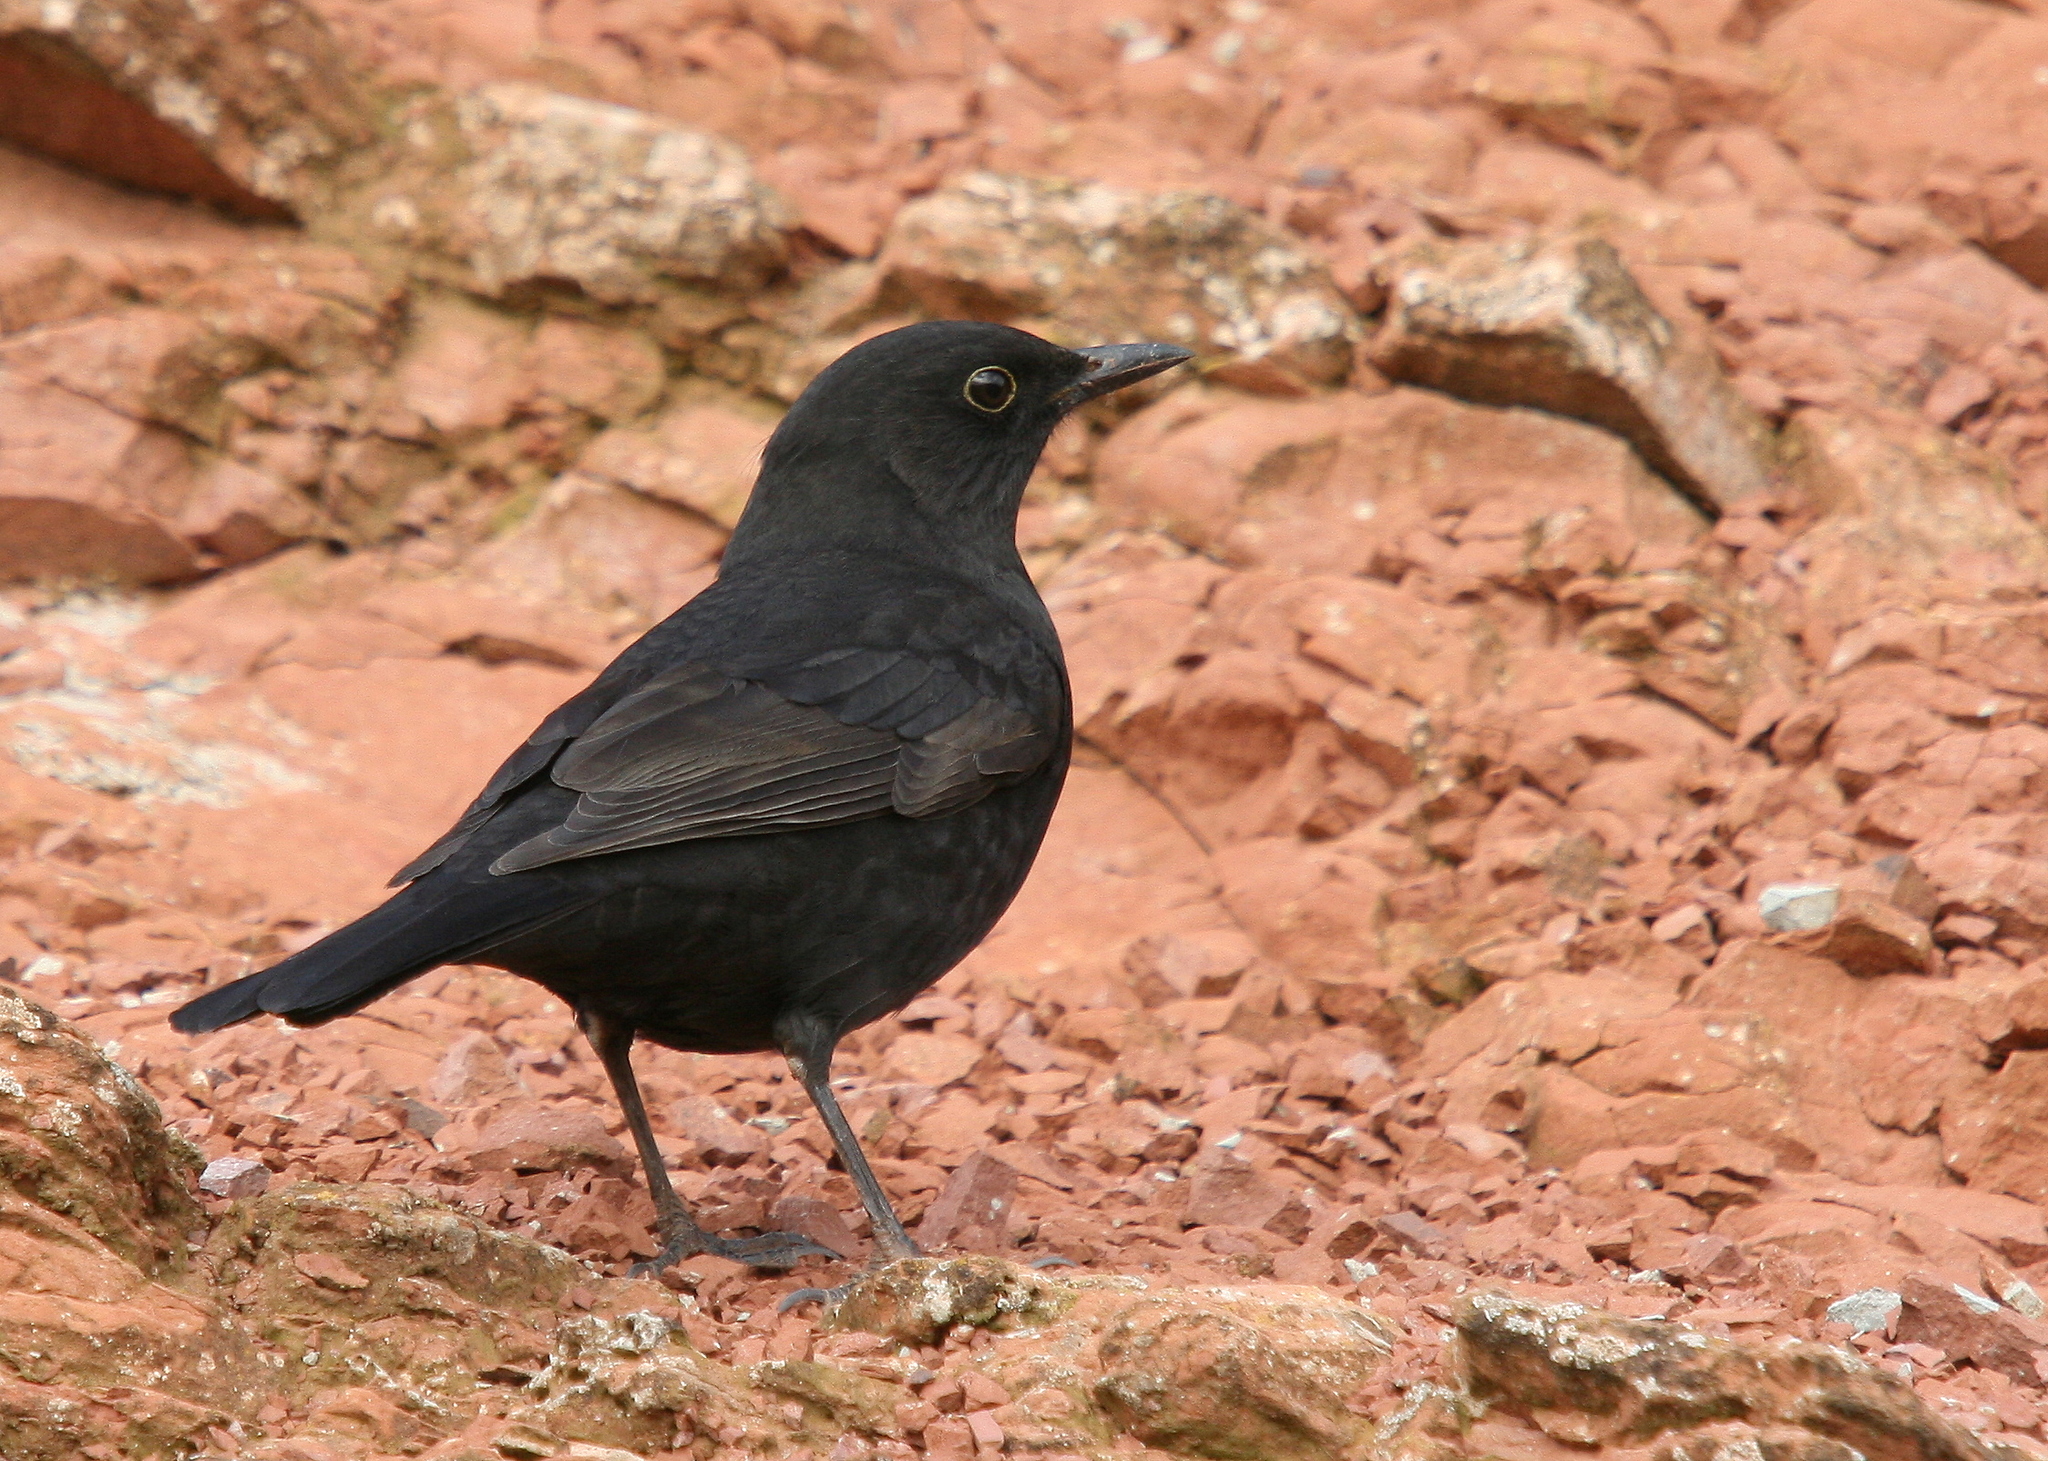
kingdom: Animalia
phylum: Chordata
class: Aves
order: Passeriformes
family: Turdidae
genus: Turdus
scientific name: Turdus merula
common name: Common blackbird
